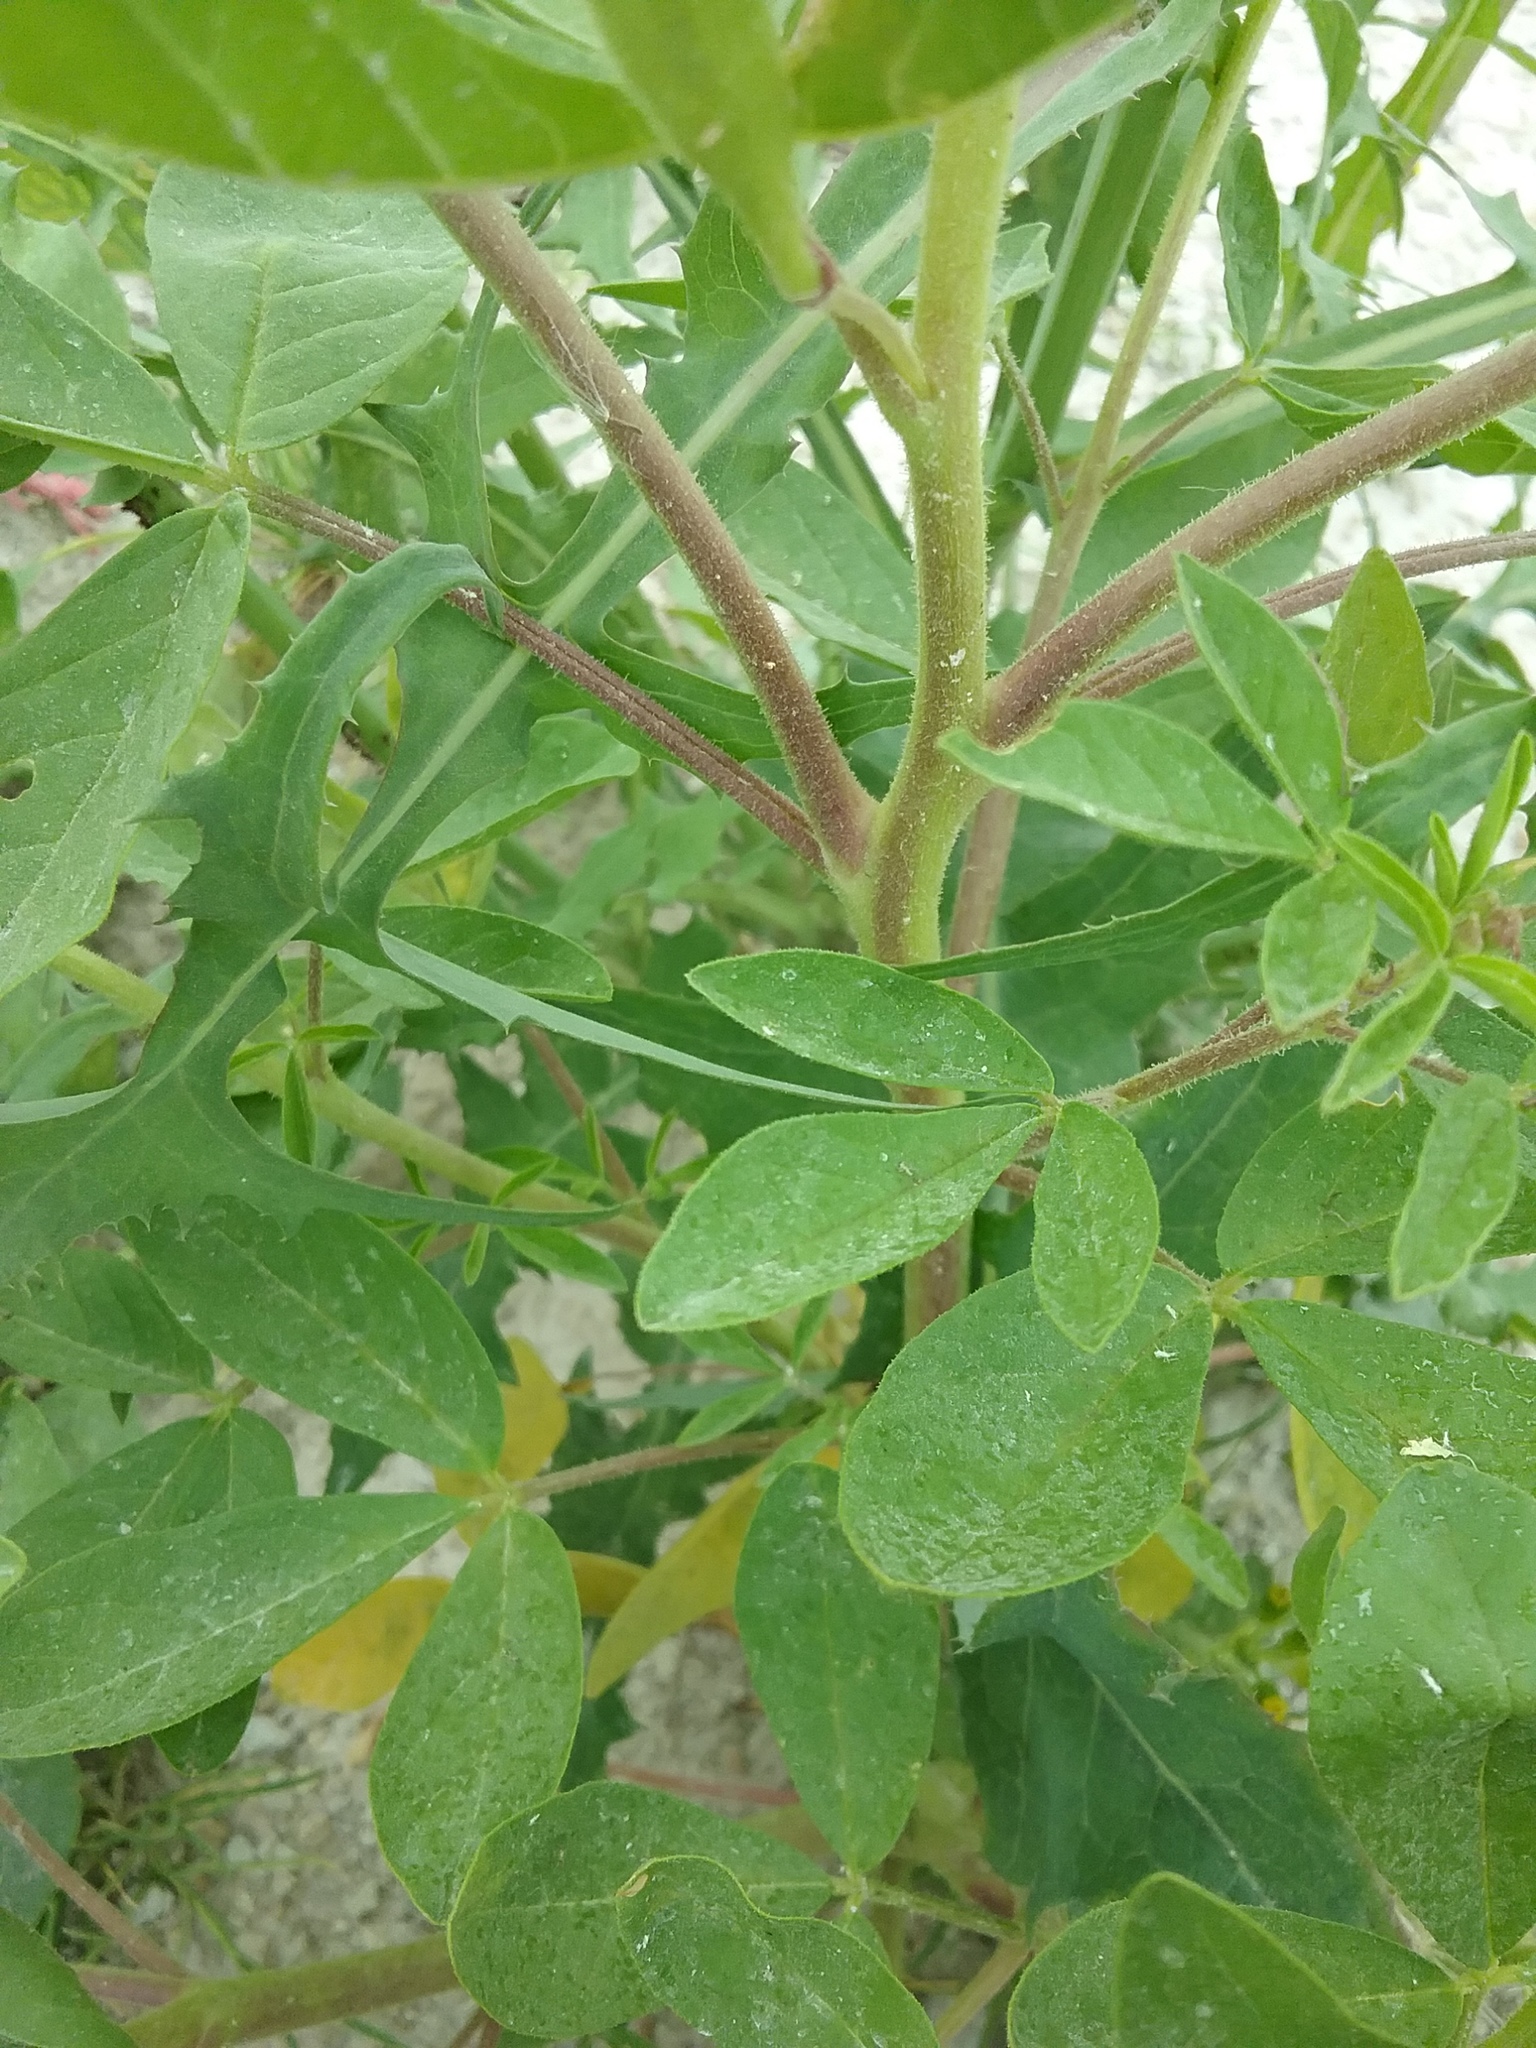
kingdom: Plantae
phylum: Tracheophyta
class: Magnoliopsida
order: Brassicales
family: Cleomaceae
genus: Polanisia
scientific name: Polanisia dodecandra
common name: Clammyweed
